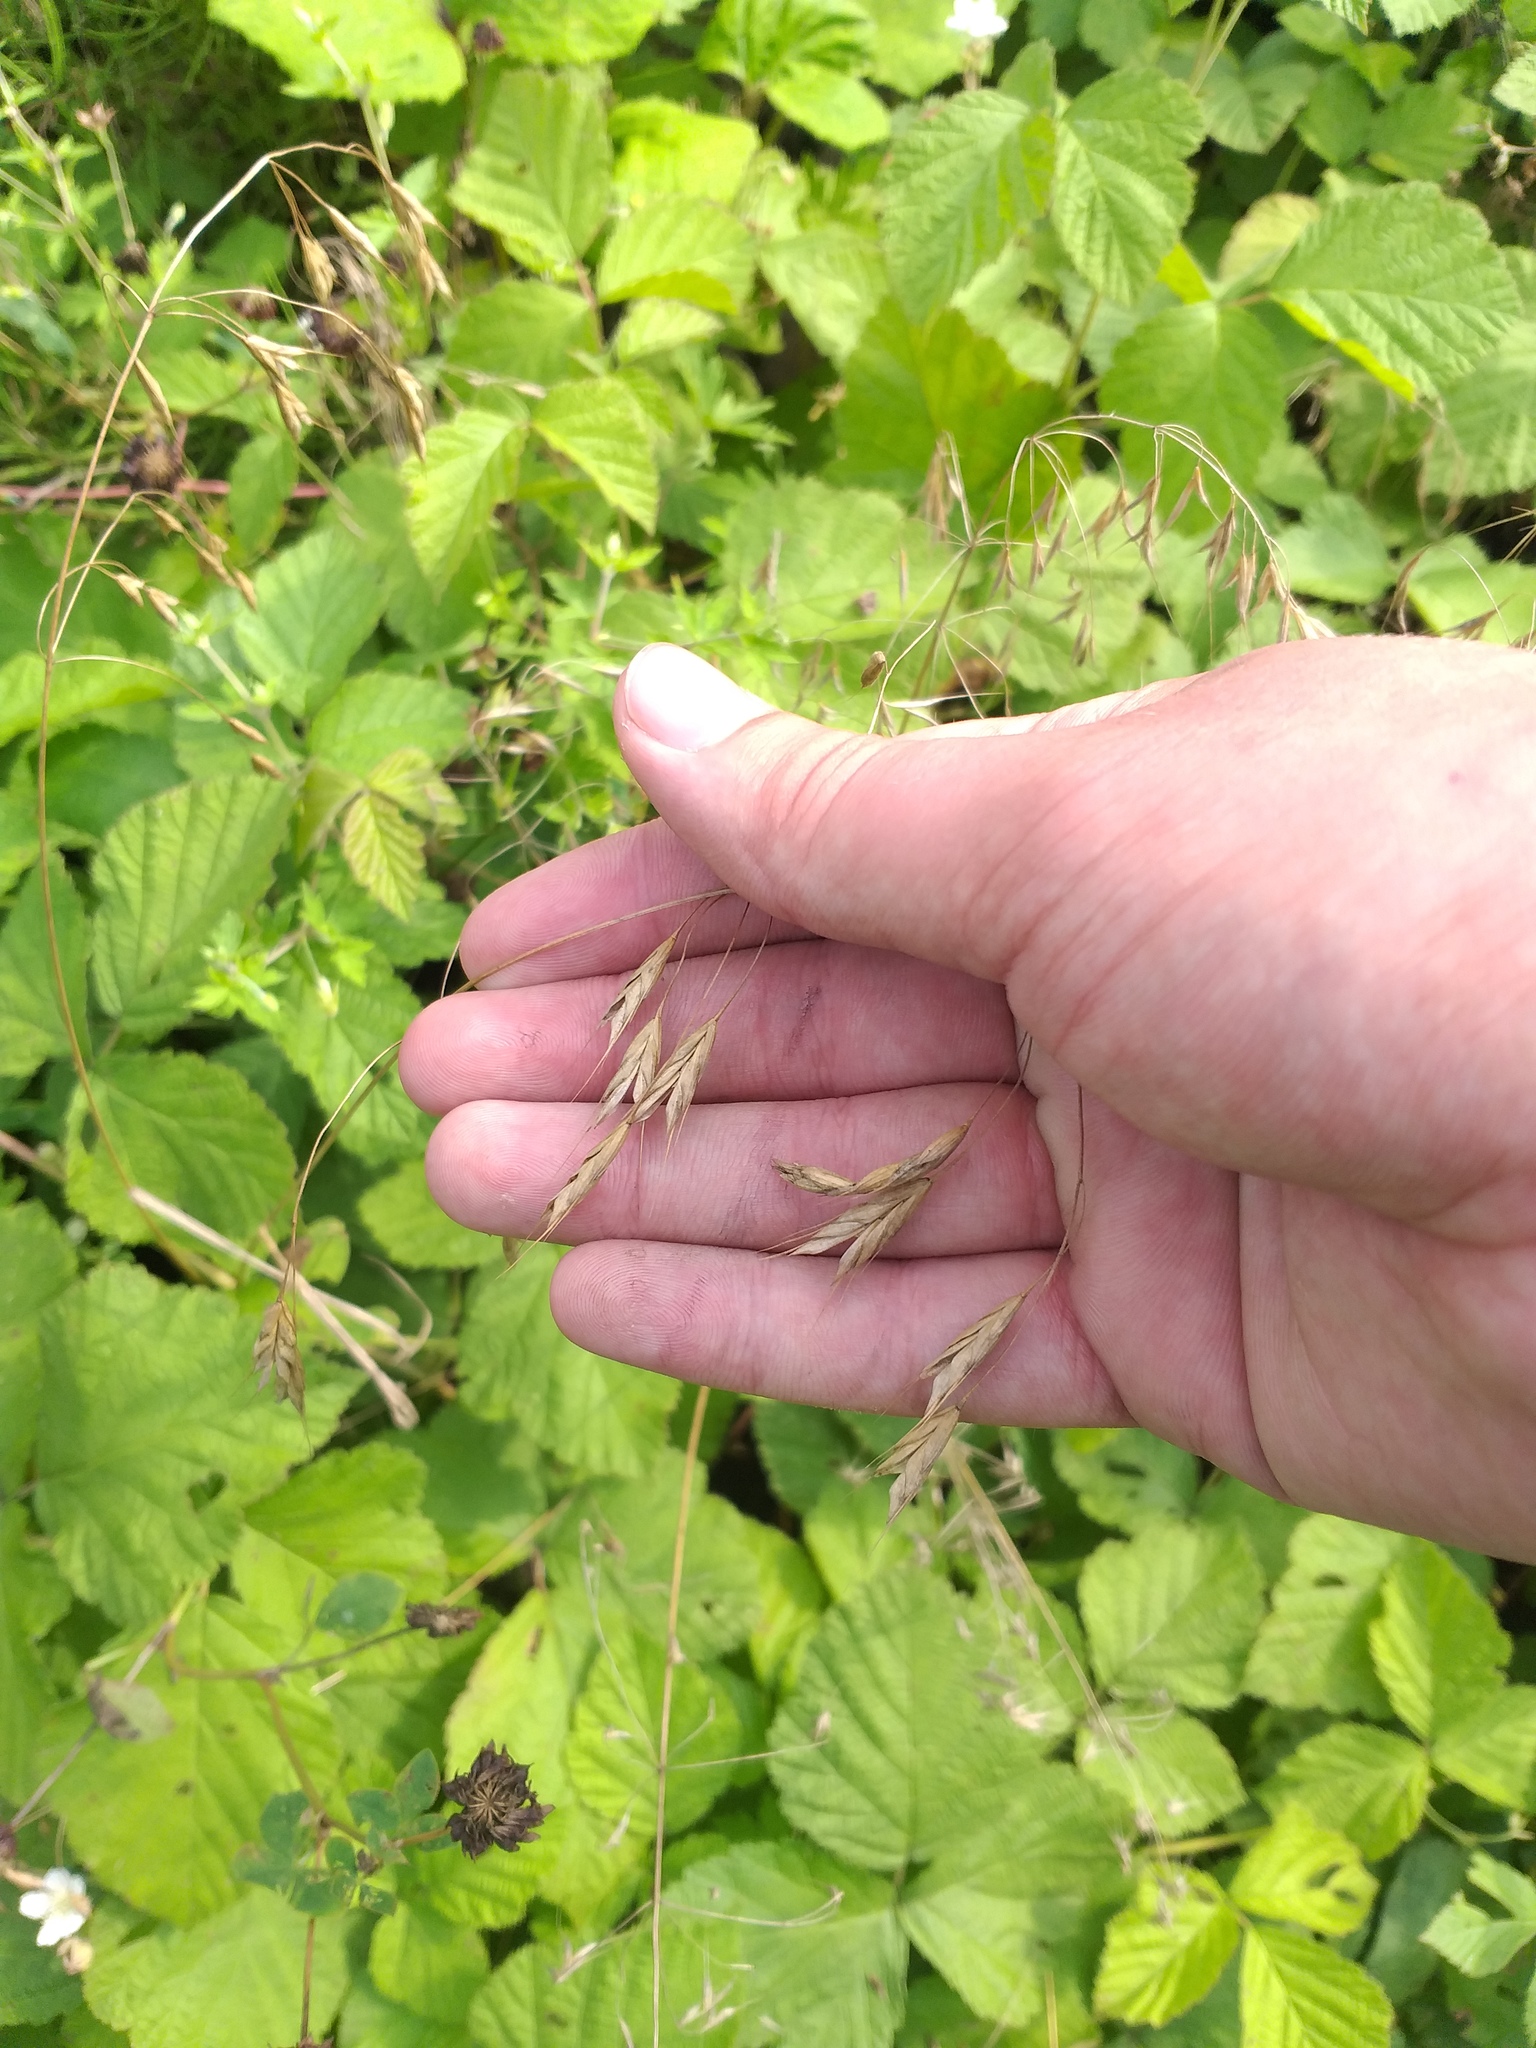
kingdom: Plantae
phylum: Tracheophyta
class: Liliopsida
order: Poales
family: Poaceae
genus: Bromus
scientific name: Bromus japonicus
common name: Japanese brome
